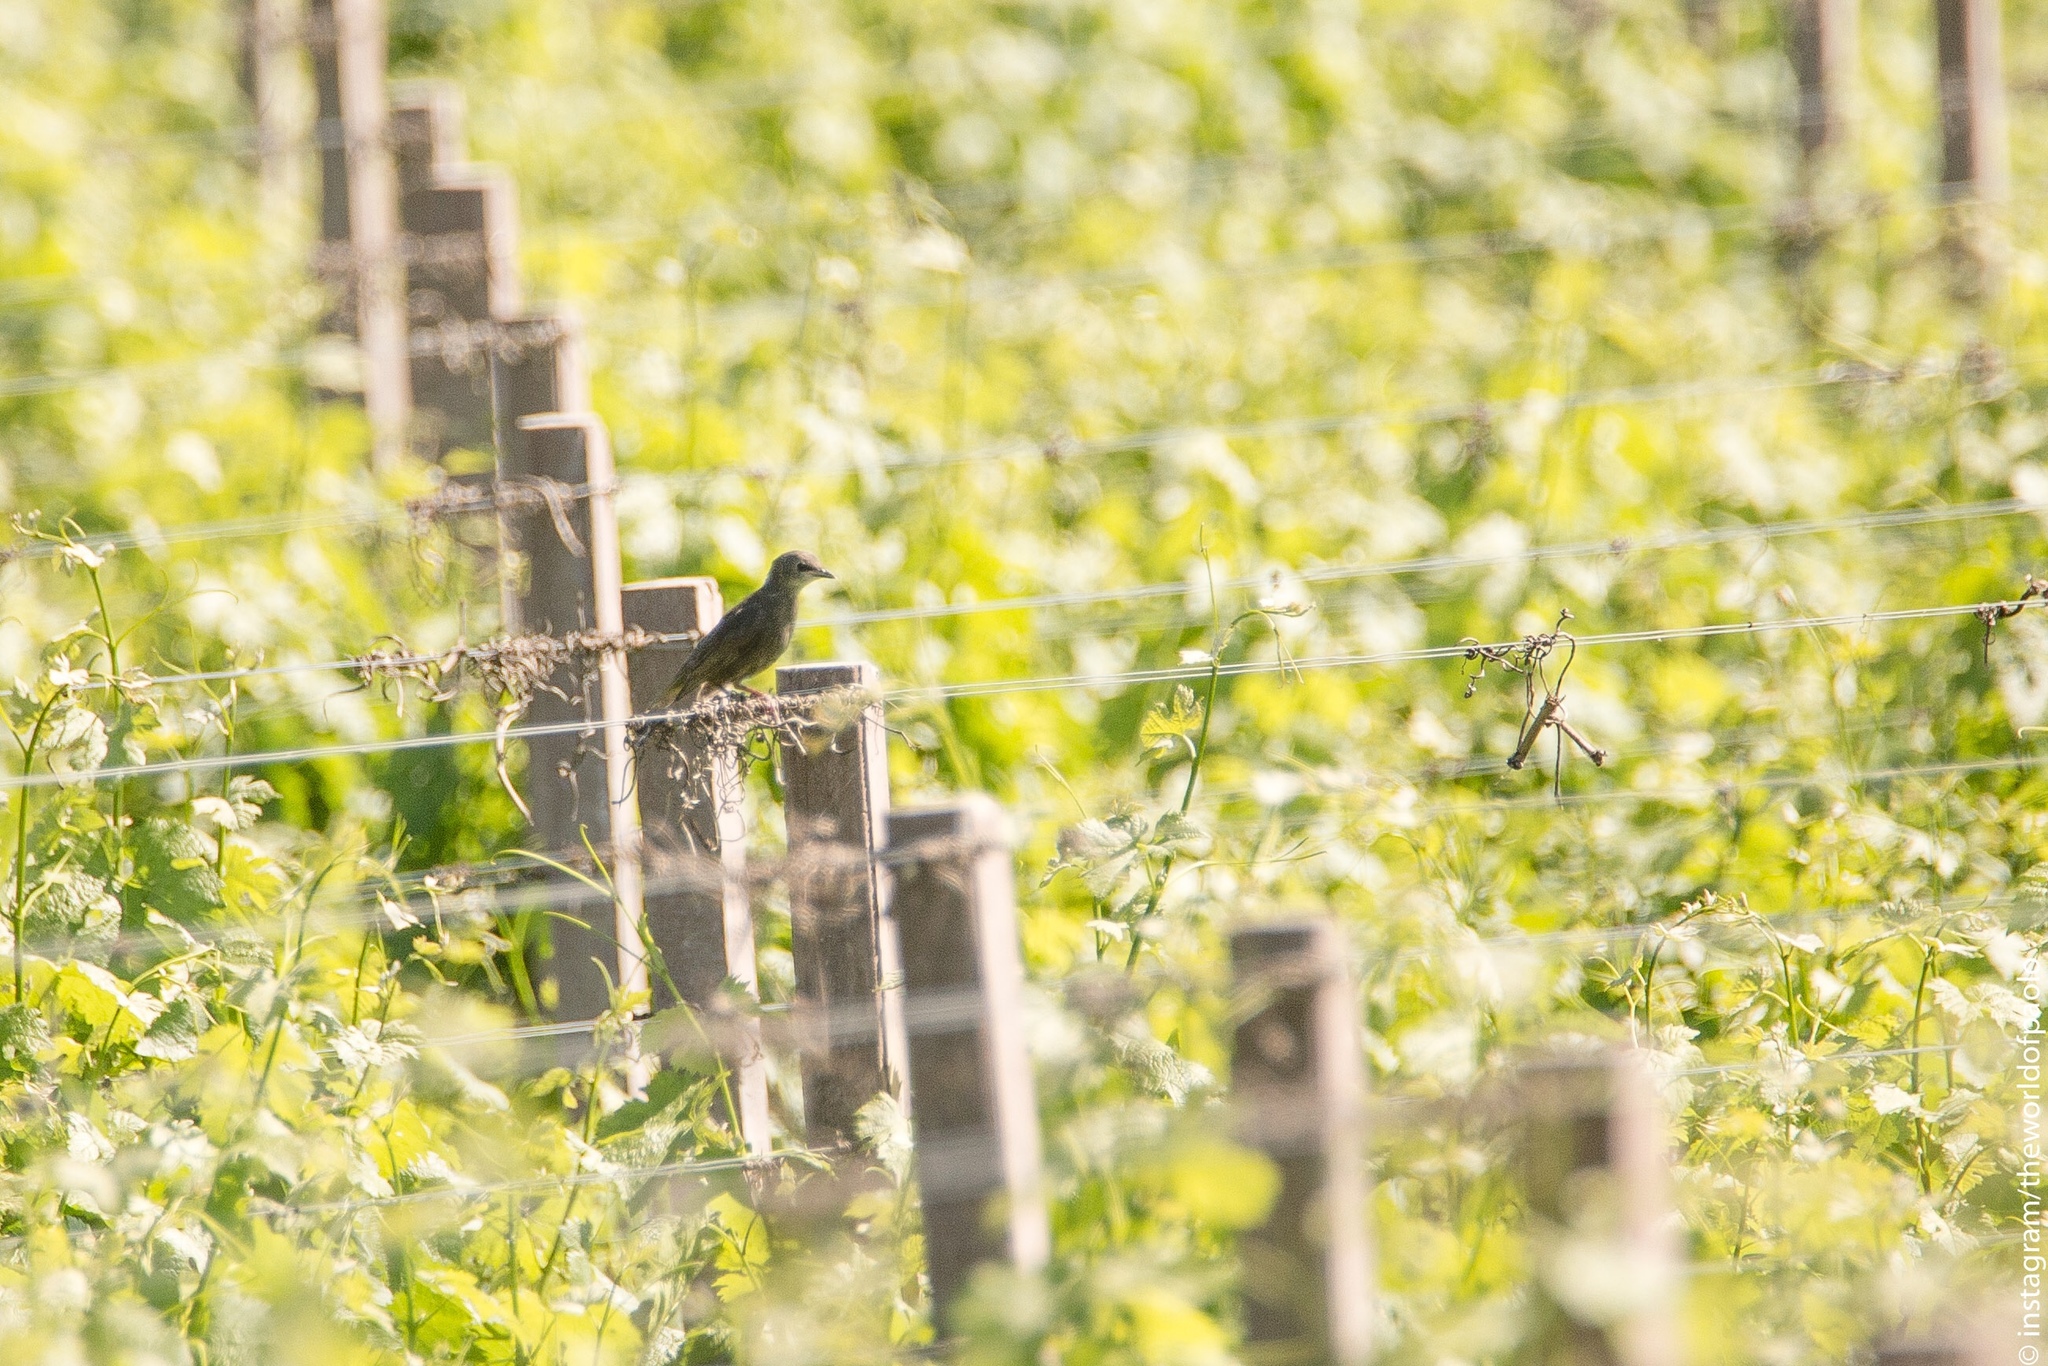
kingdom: Animalia
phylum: Chordata
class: Aves
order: Passeriformes
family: Sturnidae
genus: Sturnus
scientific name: Sturnus vulgaris
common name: Common starling
